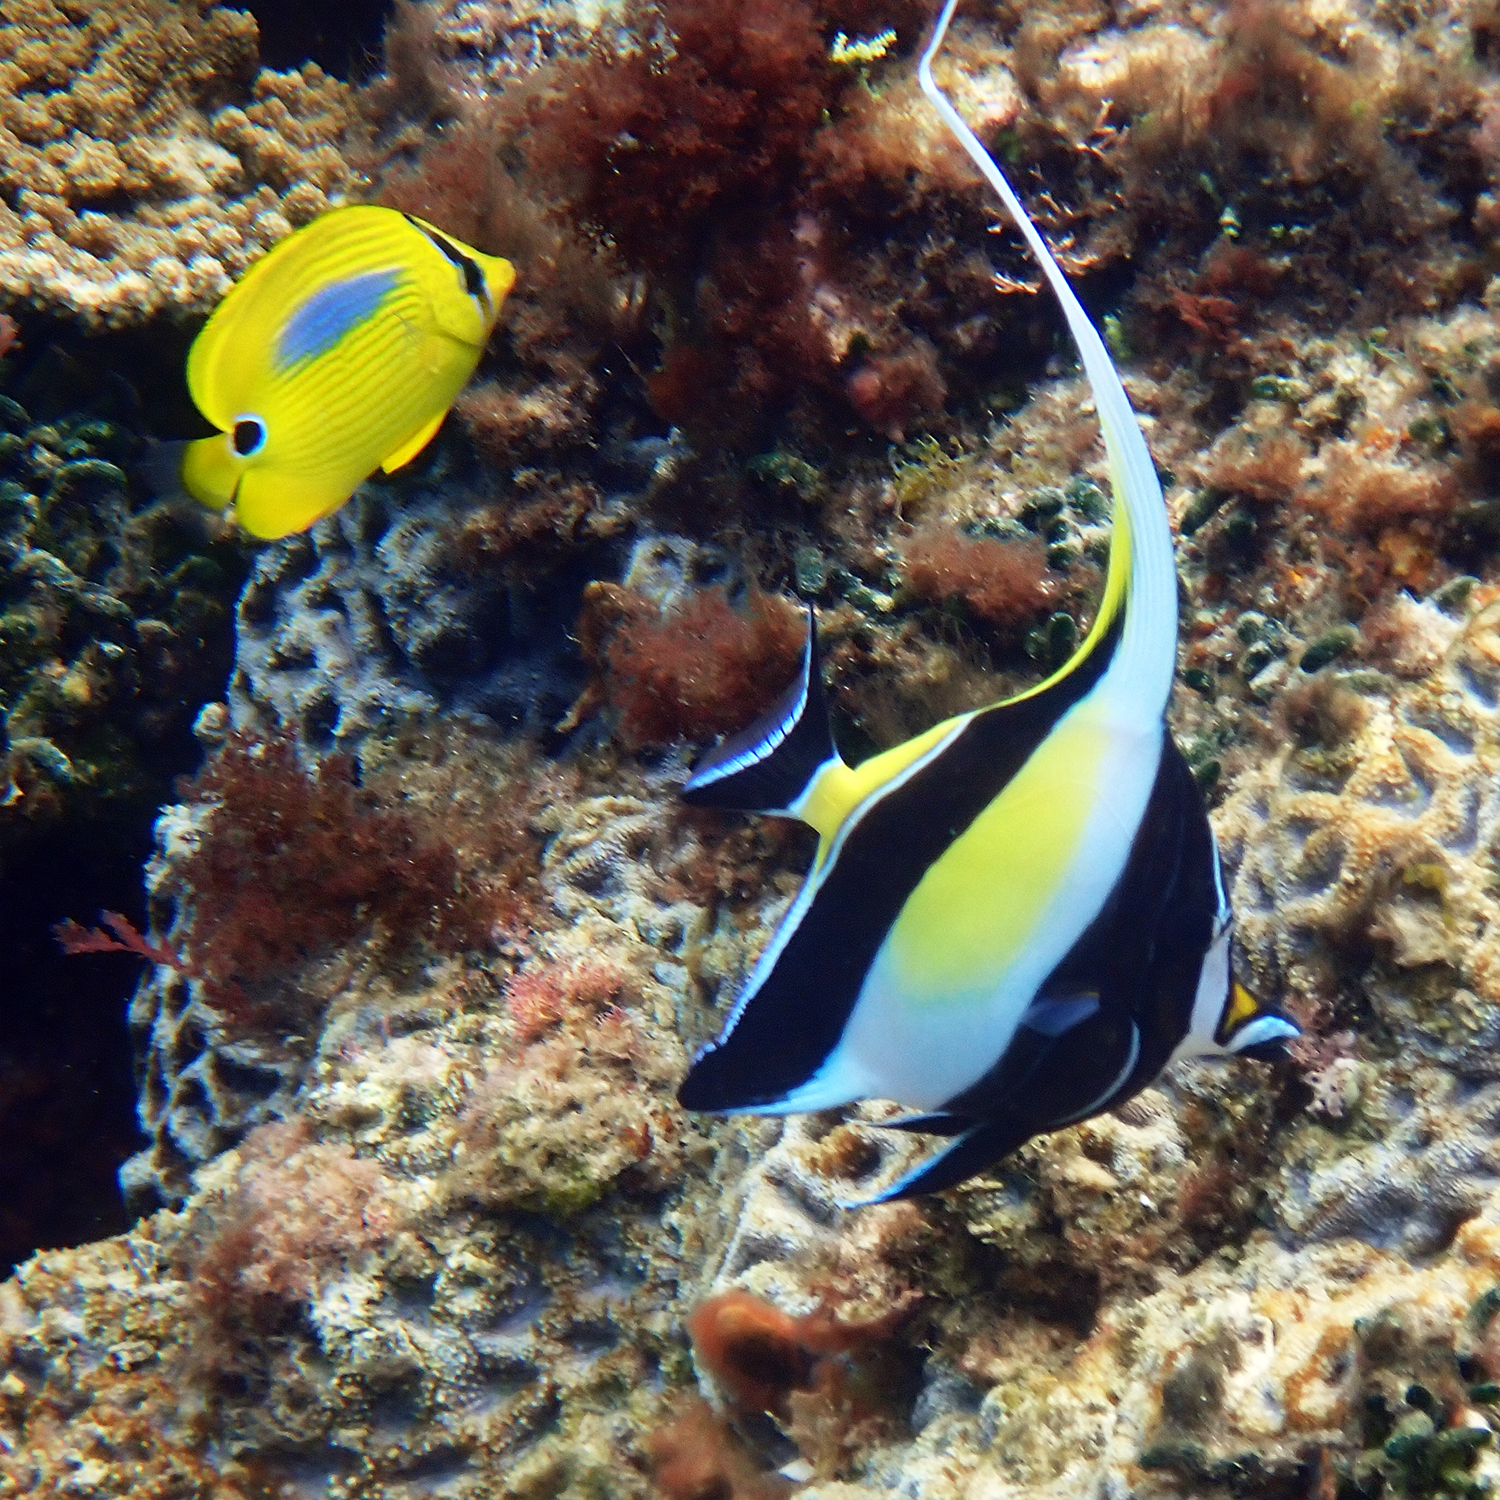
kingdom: Animalia
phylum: Chordata
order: Perciformes
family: Zanclidae
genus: Zanclus
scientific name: Zanclus cornutus
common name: Moorish idol
